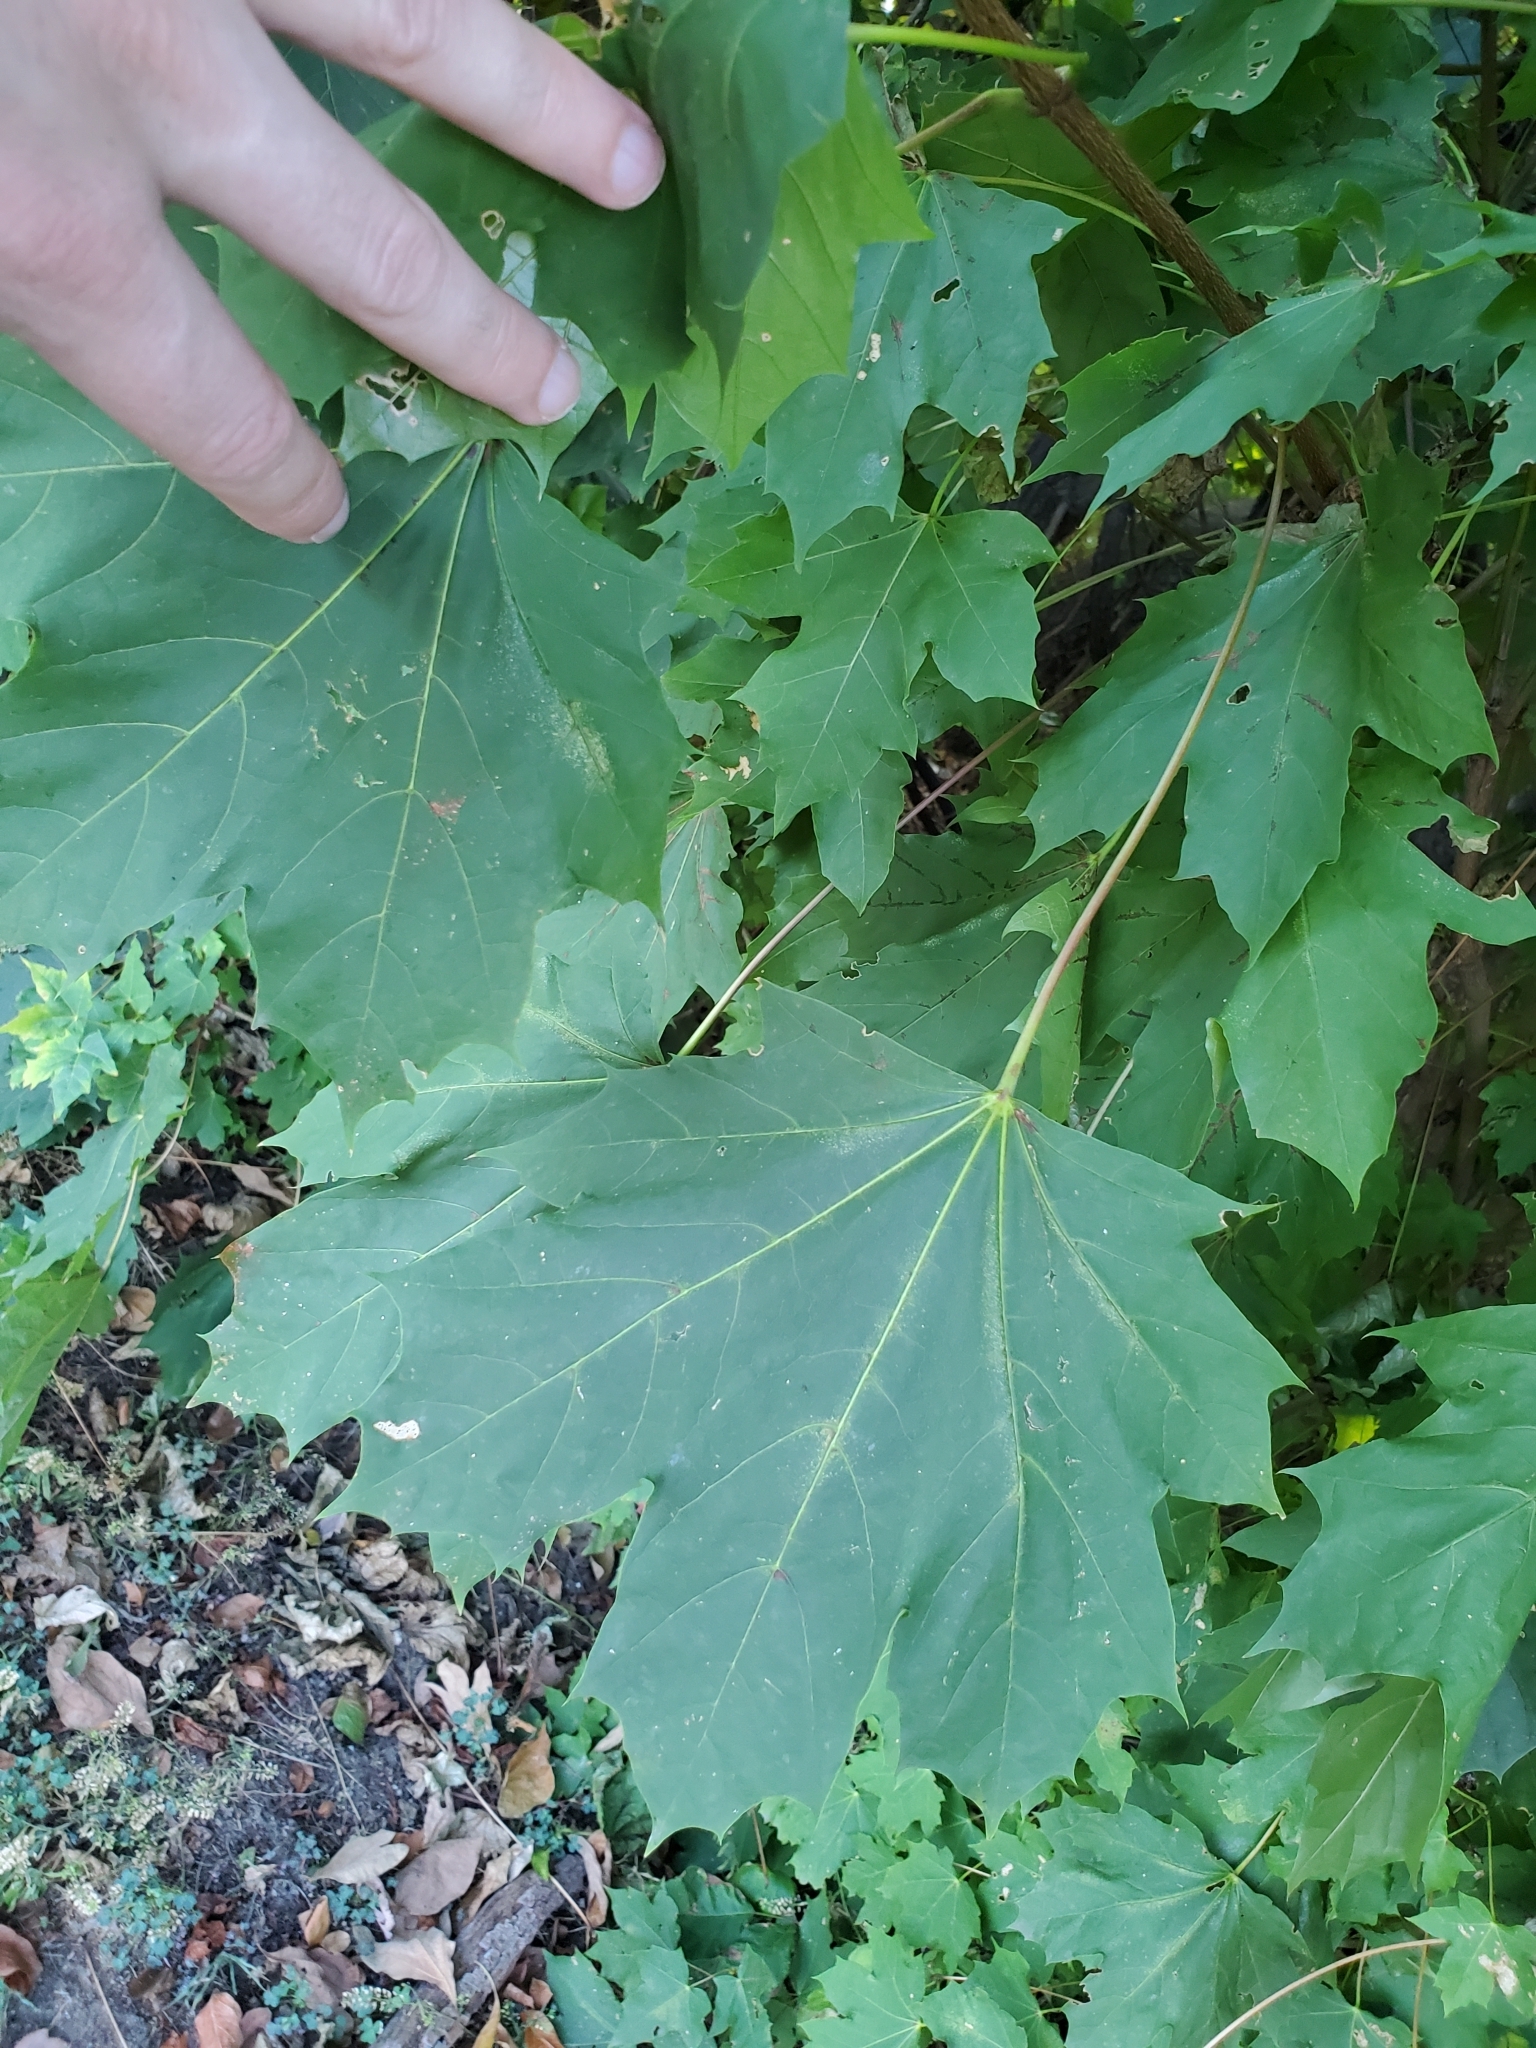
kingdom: Plantae
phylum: Tracheophyta
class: Magnoliopsida
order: Sapindales
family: Sapindaceae
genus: Acer
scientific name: Acer platanoides
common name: Norway maple
